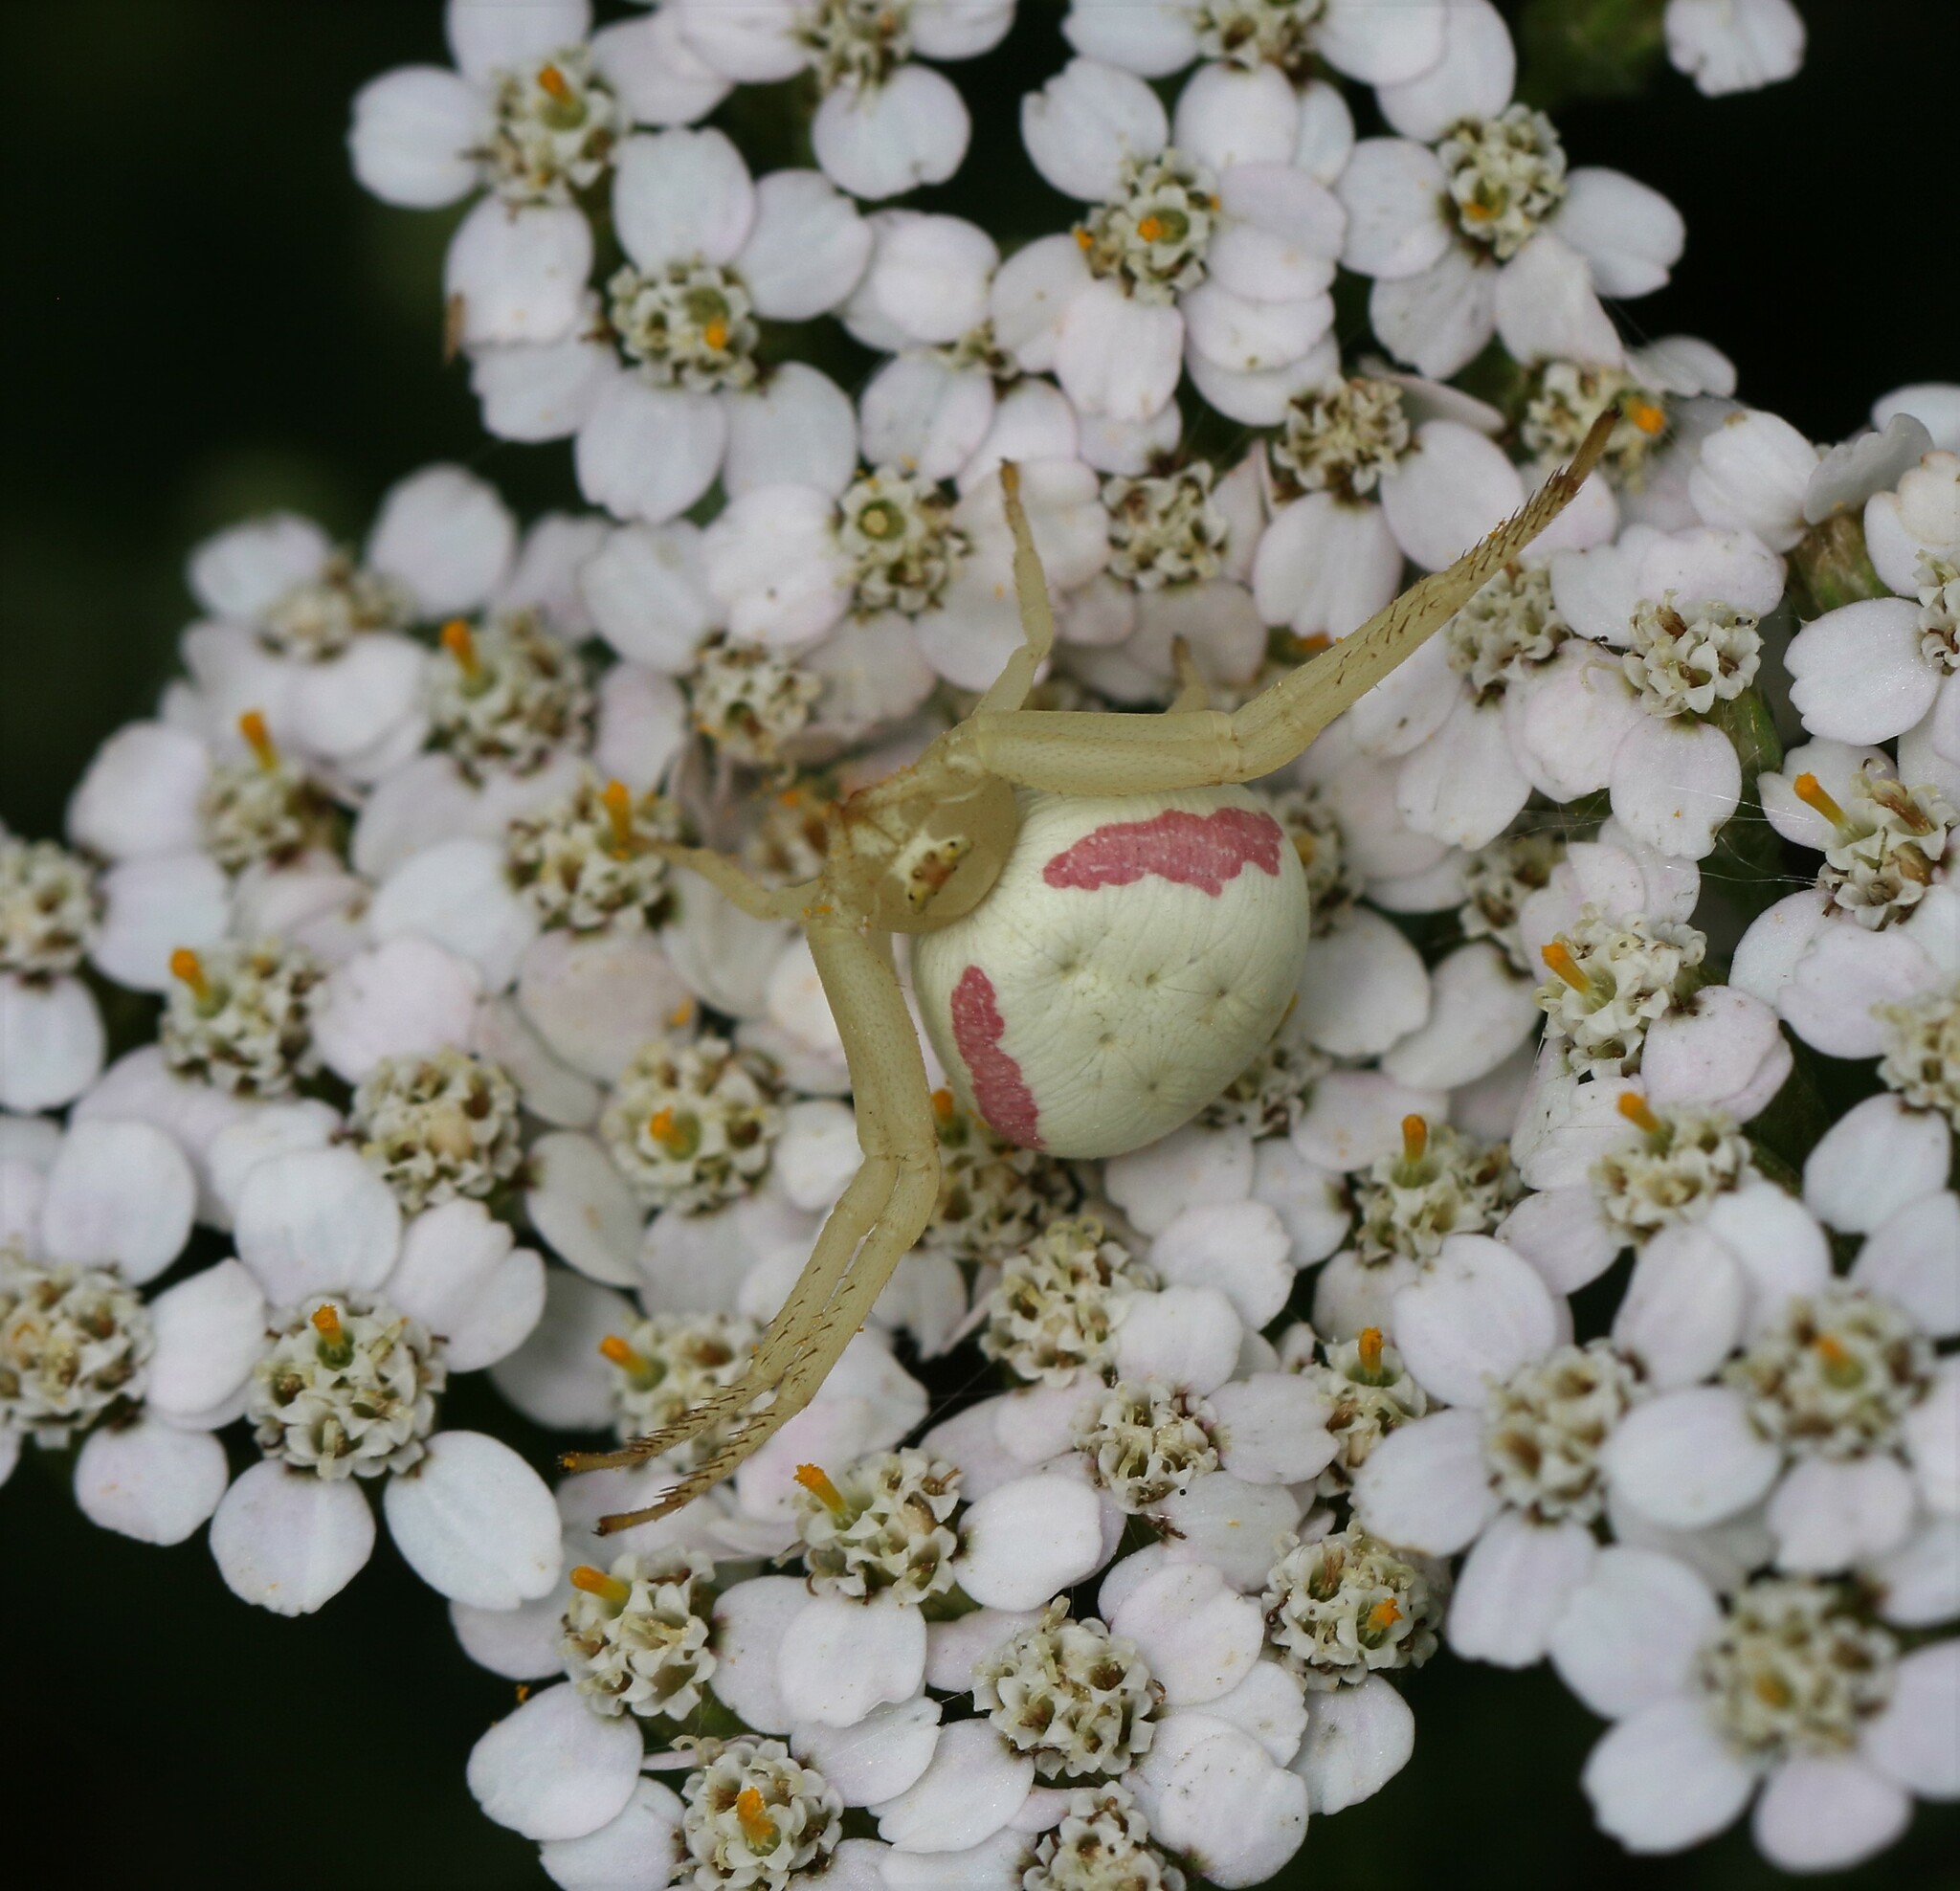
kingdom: Animalia
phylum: Arthropoda
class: Arachnida
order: Araneae
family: Thomisidae
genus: Misumena
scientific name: Misumena vatia
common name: Goldenrod crab spider
